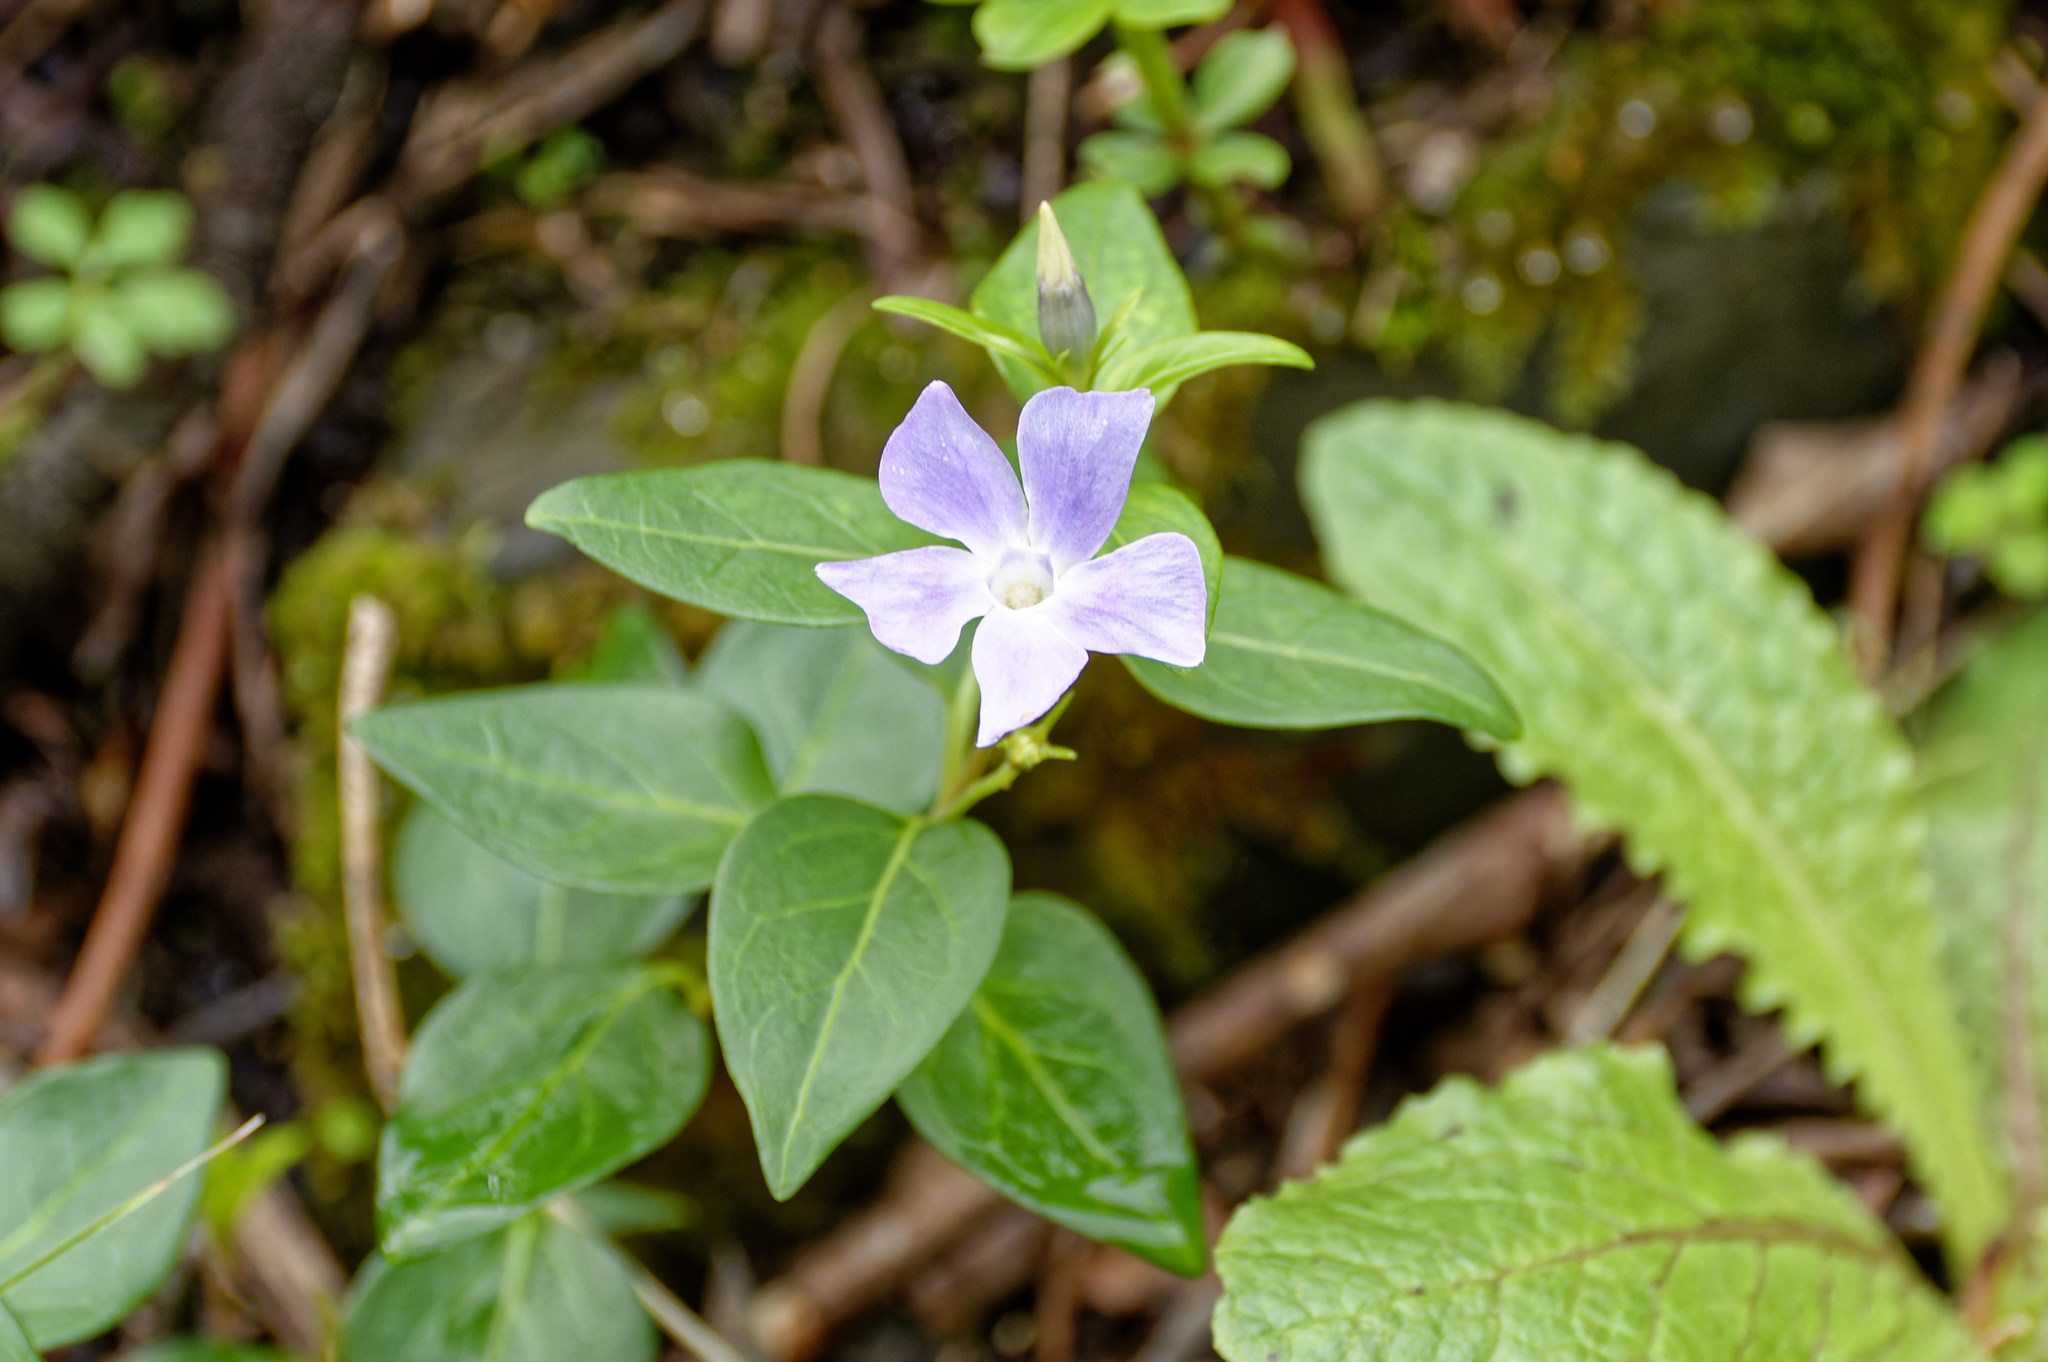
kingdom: Plantae
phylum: Tracheophyta
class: Magnoliopsida
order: Gentianales
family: Apocynaceae
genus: Vinca
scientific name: Vinca difformis
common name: Intermediate periwinkle
